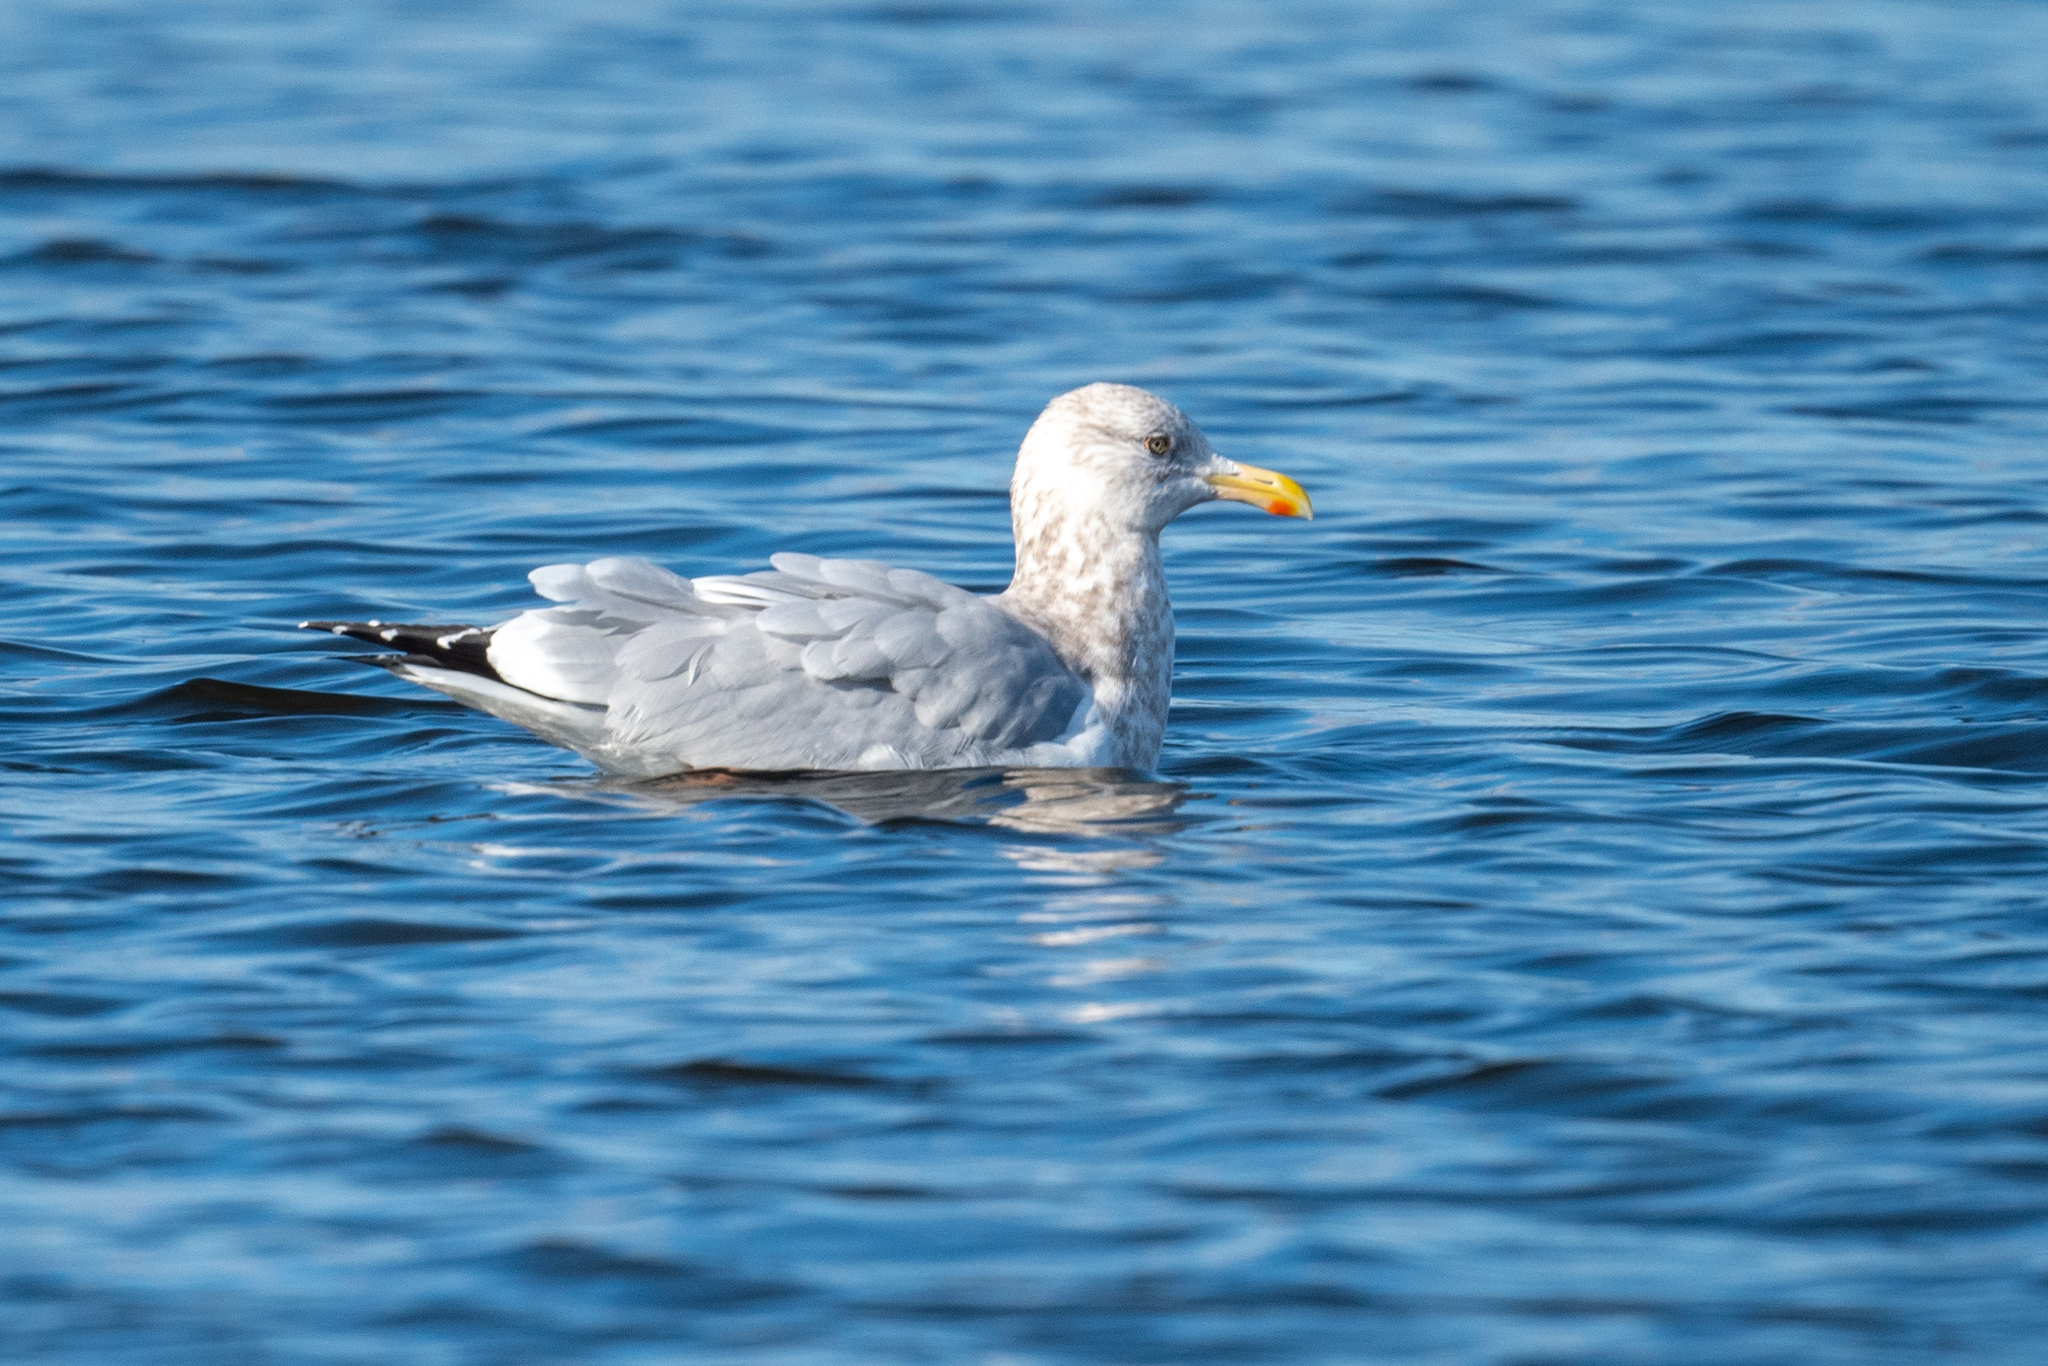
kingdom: Animalia
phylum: Chordata
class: Aves
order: Charadriiformes
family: Laridae
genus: Larus
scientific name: Larus argentatus
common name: Herring gull
